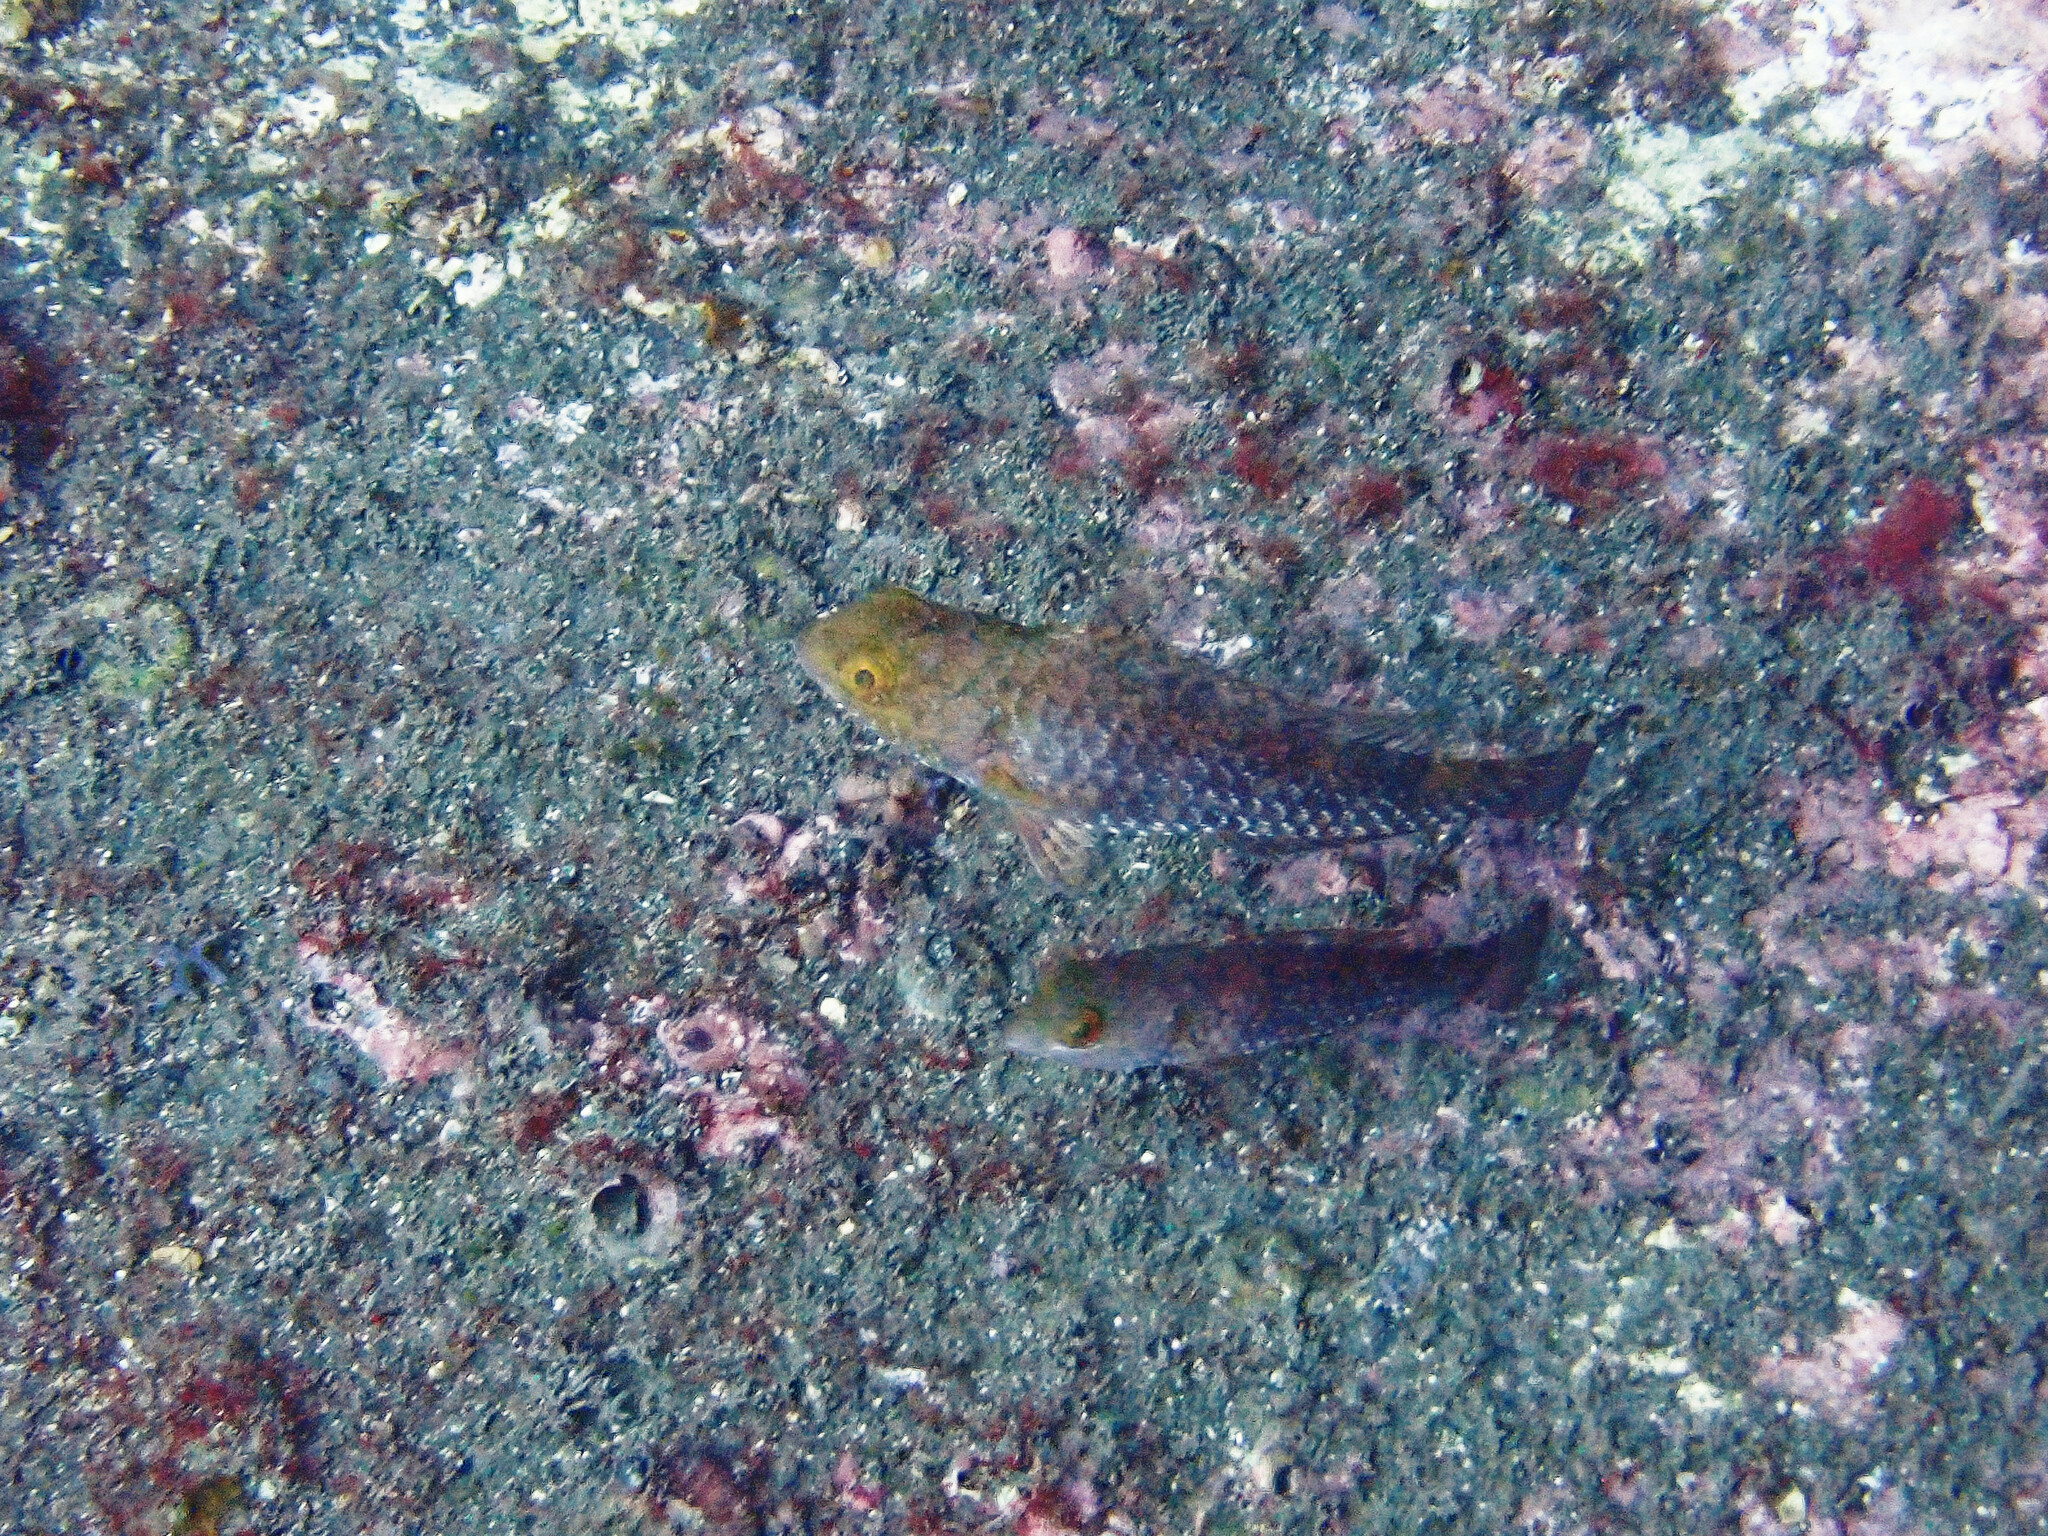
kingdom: Animalia
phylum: Chordata
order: Perciformes
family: Scaridae
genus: Sparisoma
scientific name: Sparisoma cretense
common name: Parrotfish
